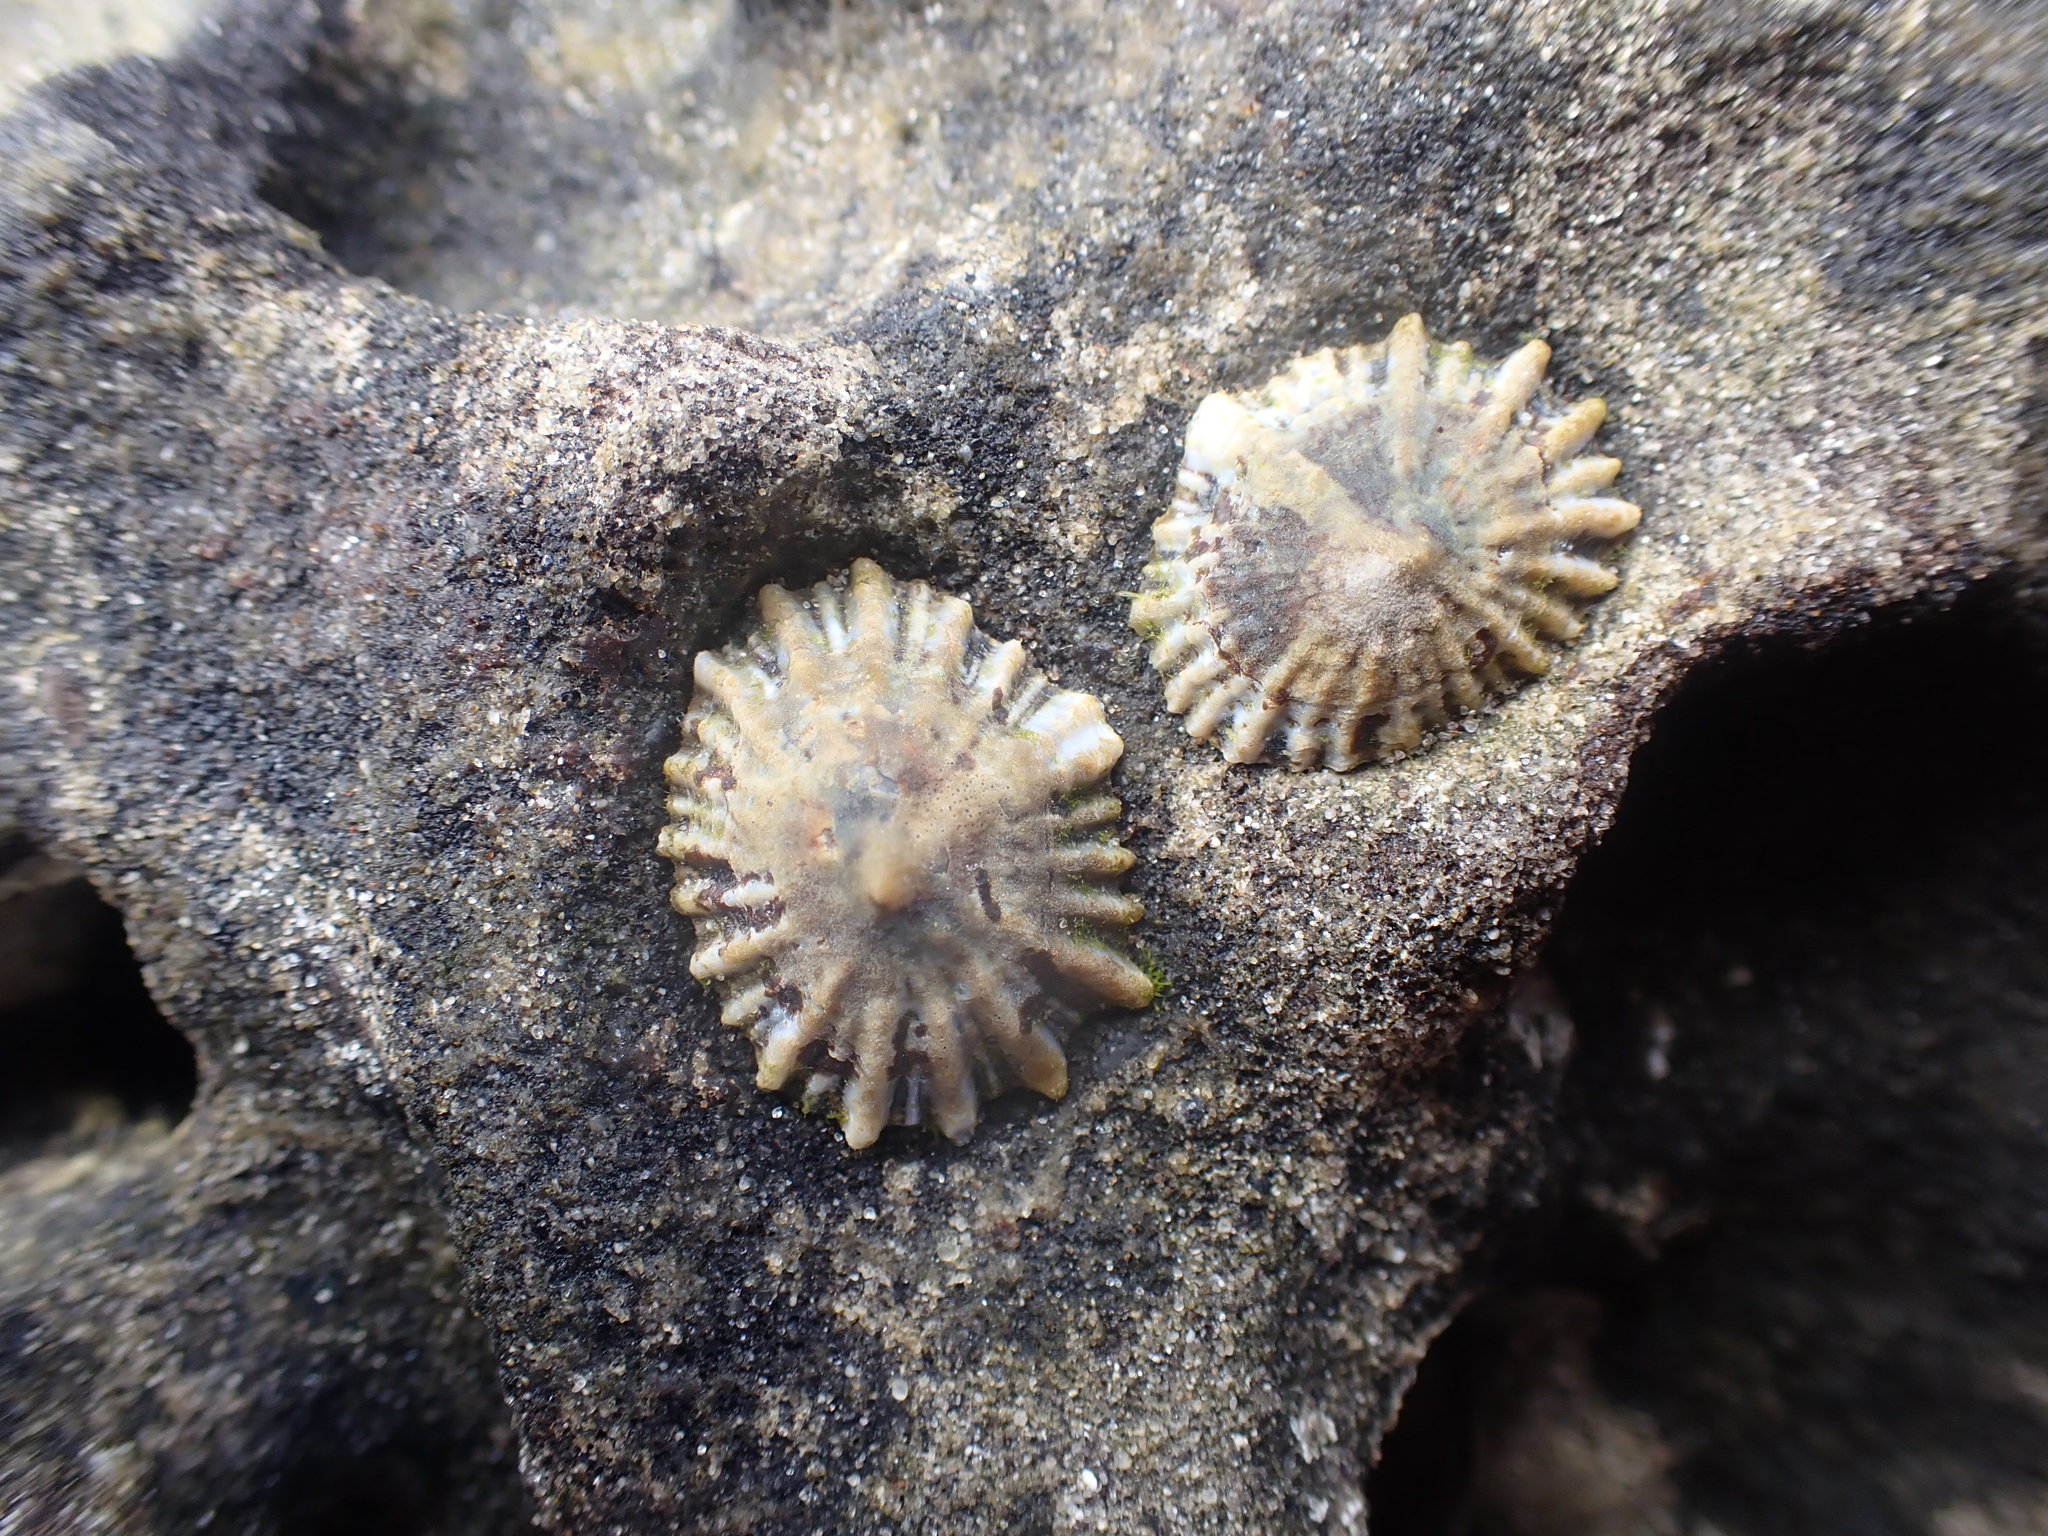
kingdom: Animalia
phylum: Mollusca
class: Gastropoda
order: Siphonariida
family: Siphonariidae
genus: Siphonaria
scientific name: Siphonaria australis
